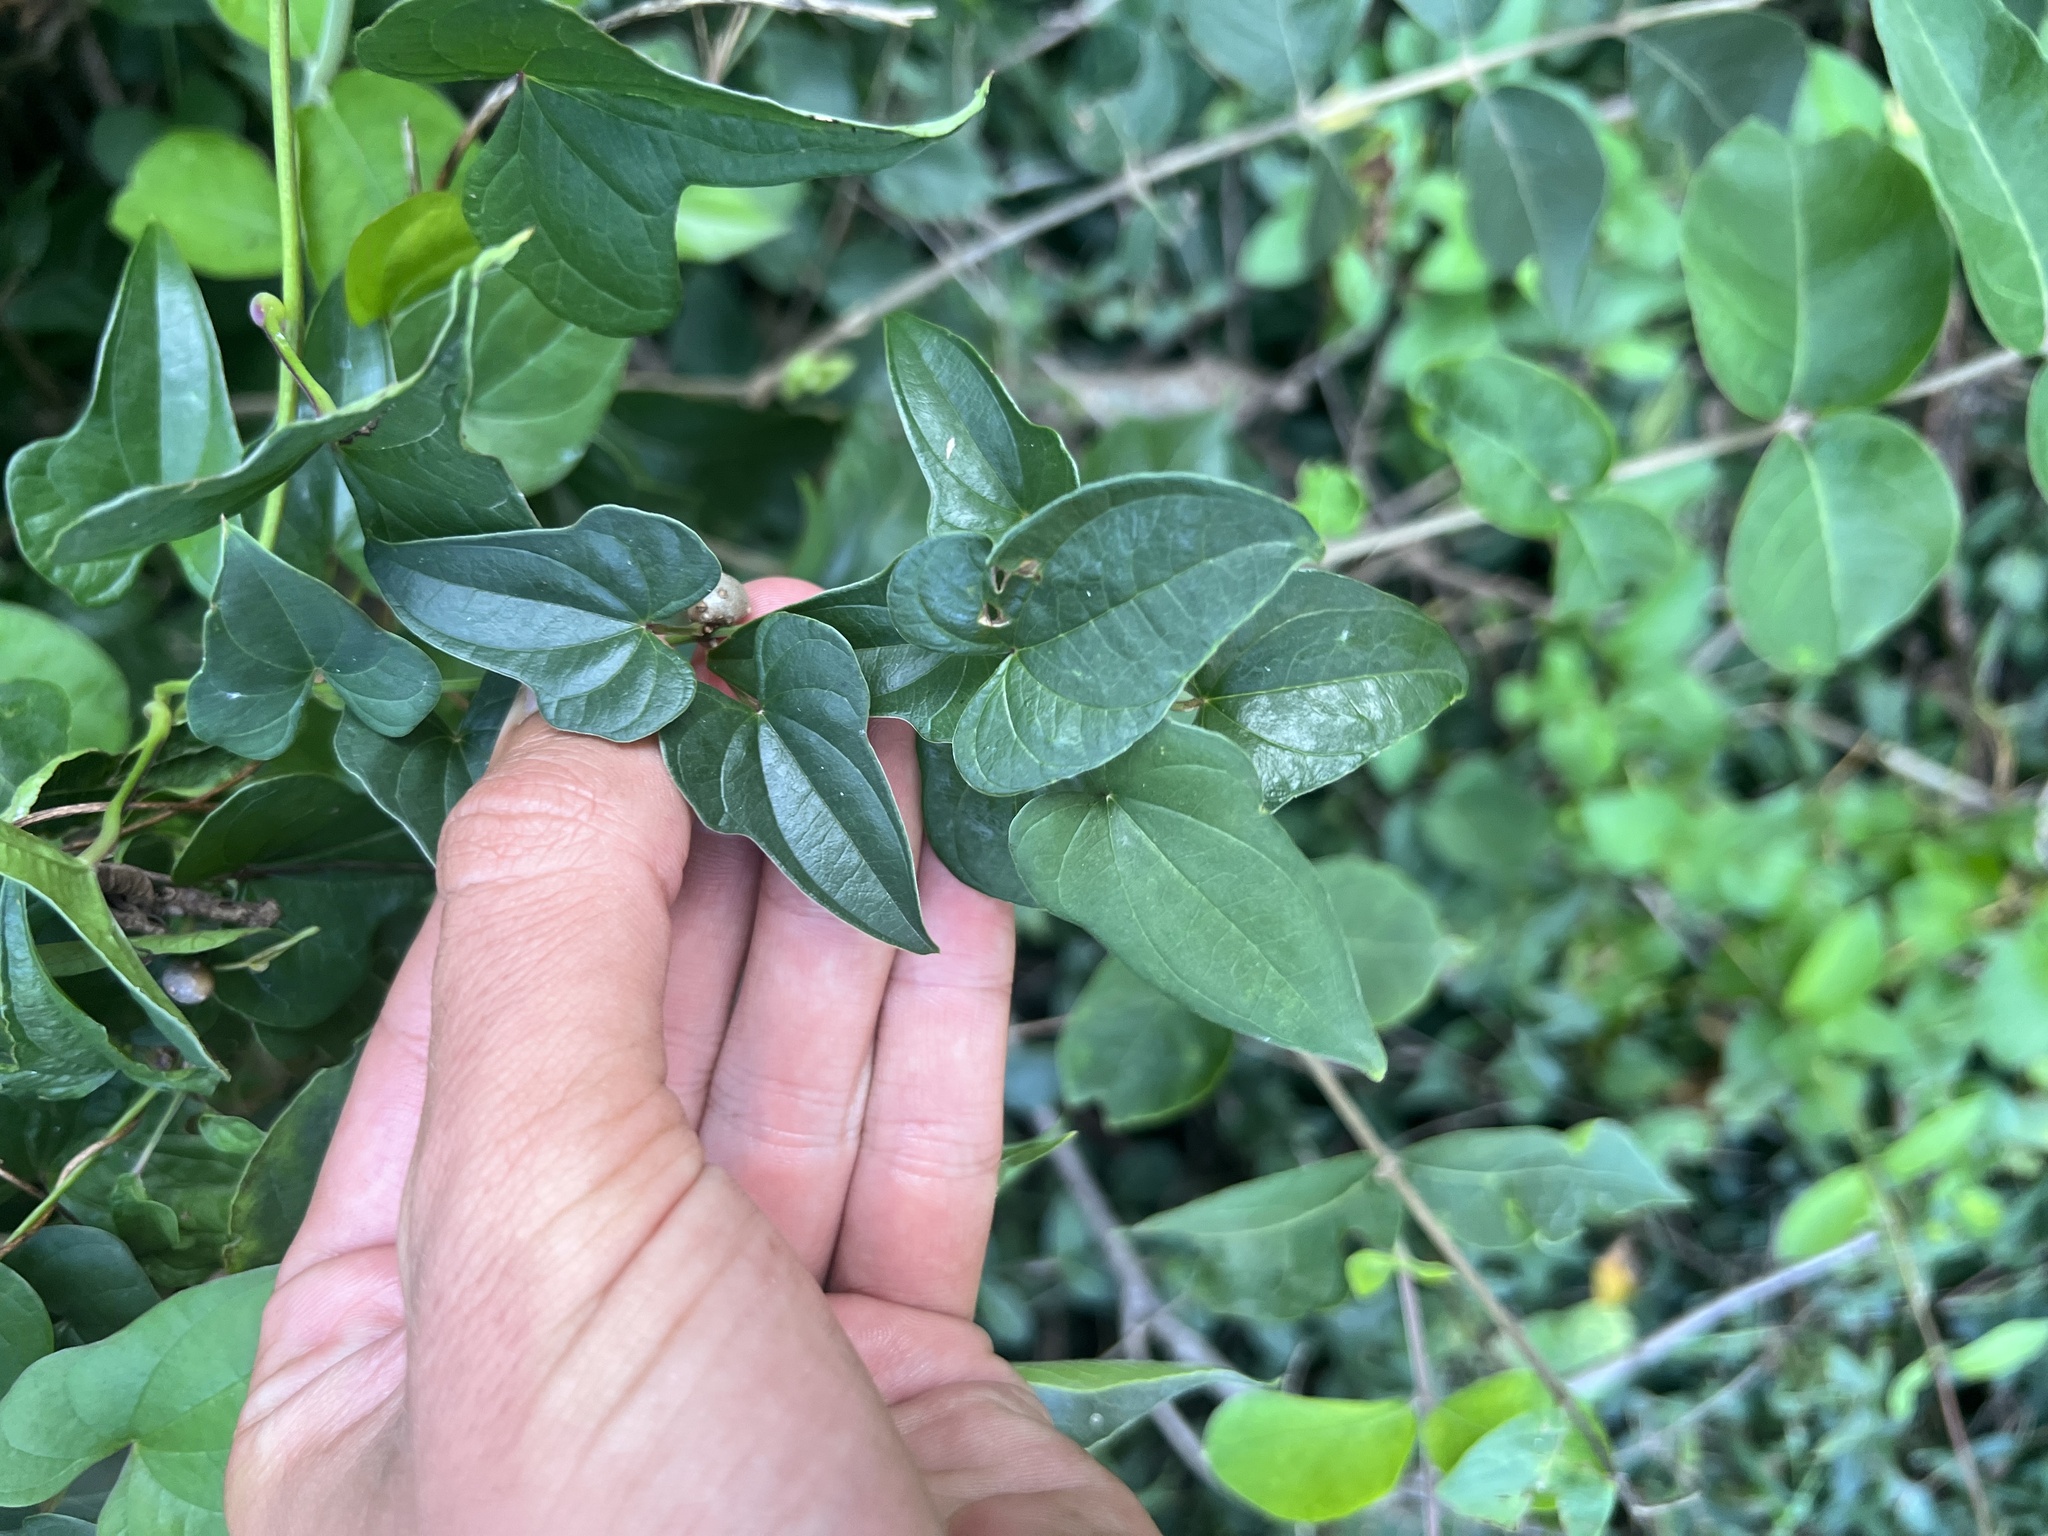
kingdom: Plantae
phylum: Tracheophyta
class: Liliopsida
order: Dioscoreales
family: Dioscoreaceae
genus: Dioscorea
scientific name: Dioscorea polystachya
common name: Chinese yam
